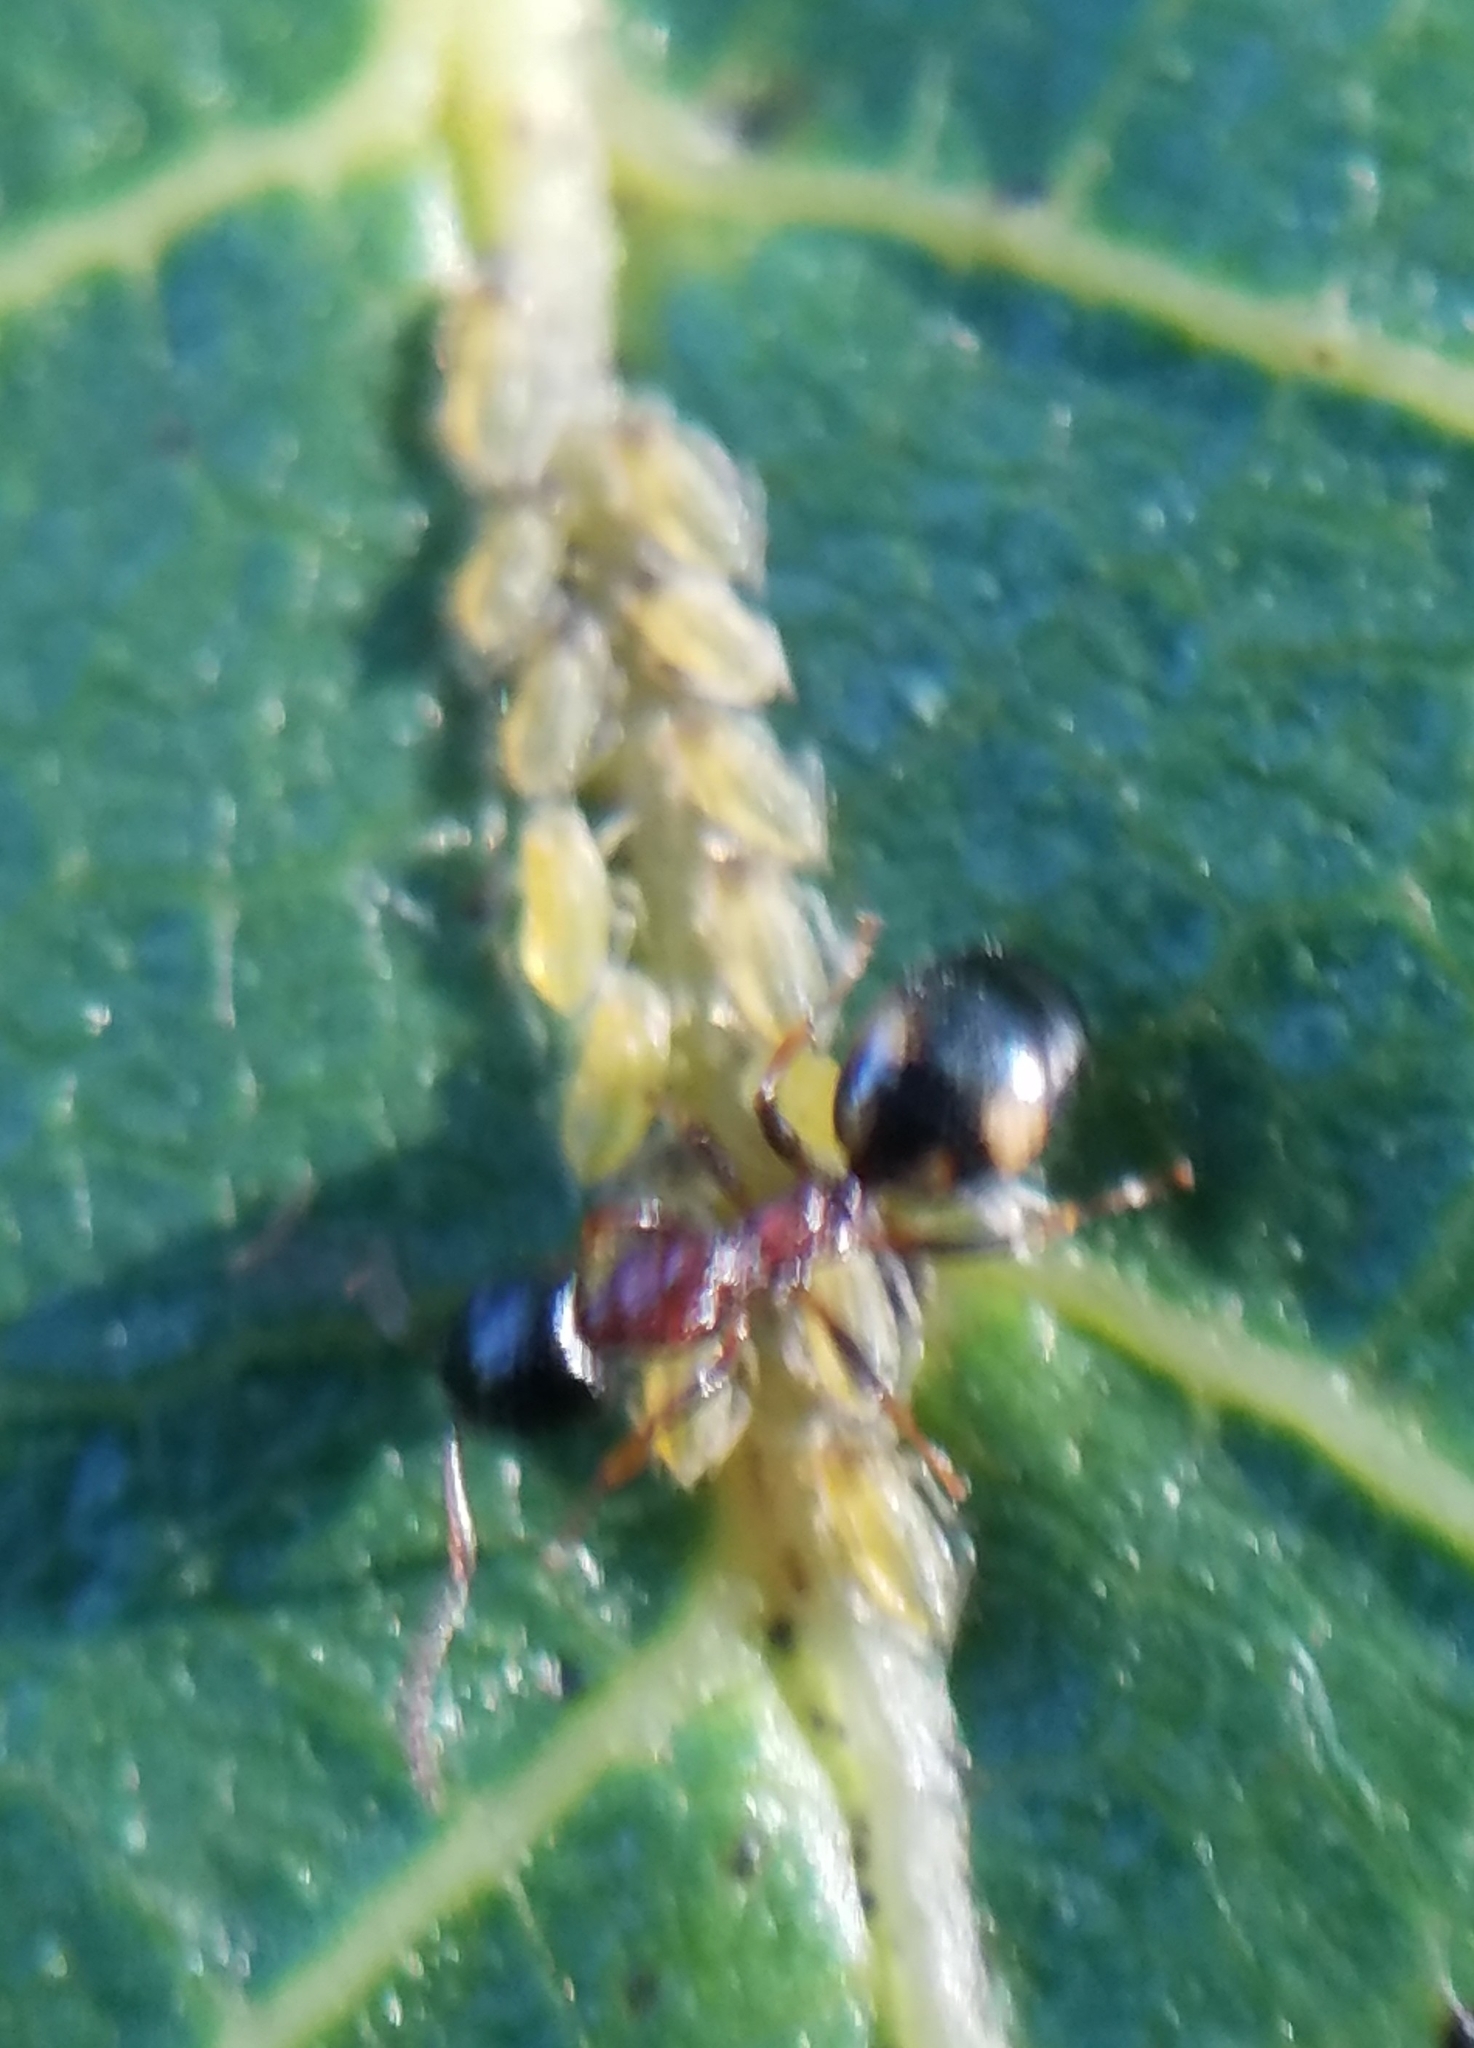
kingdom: Animalia
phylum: Arthropoda
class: Insecta
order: Hemiptera
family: Aphididae
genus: Panaphis
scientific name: Panaphis juglandis
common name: Large walnut aphid
